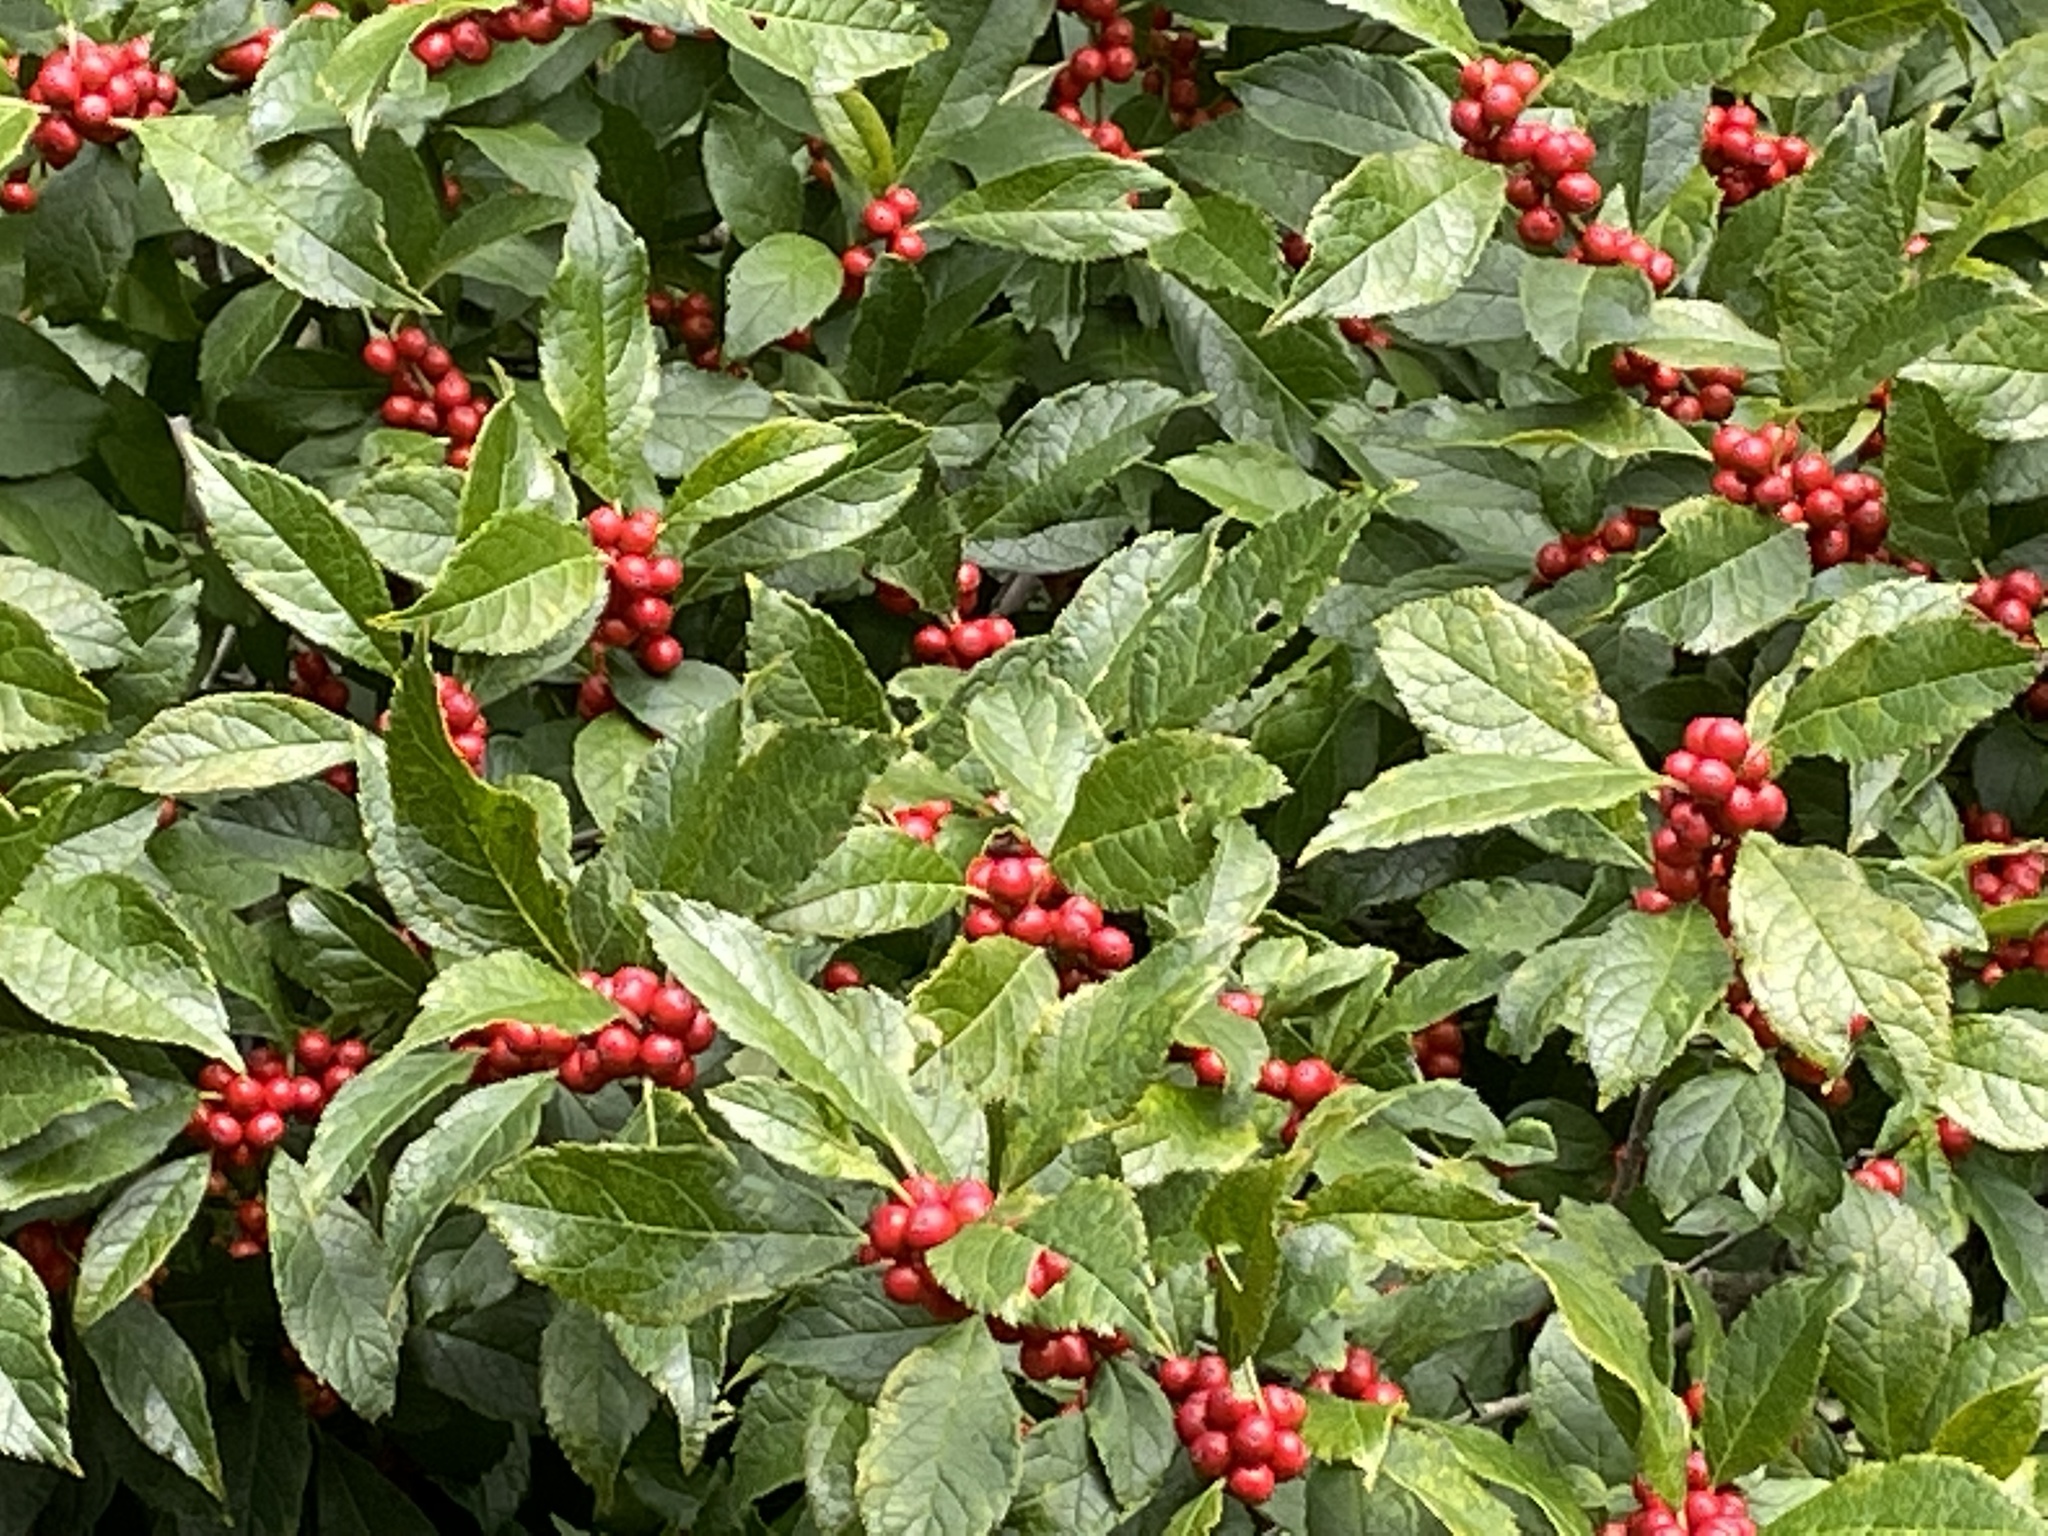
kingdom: Plantae
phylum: Tracheophyta
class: Magnoliopsida
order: Aquifoliales
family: Aquifoliaceae
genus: Ilex
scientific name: Ilex verticillata
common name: Virginia winterberry
